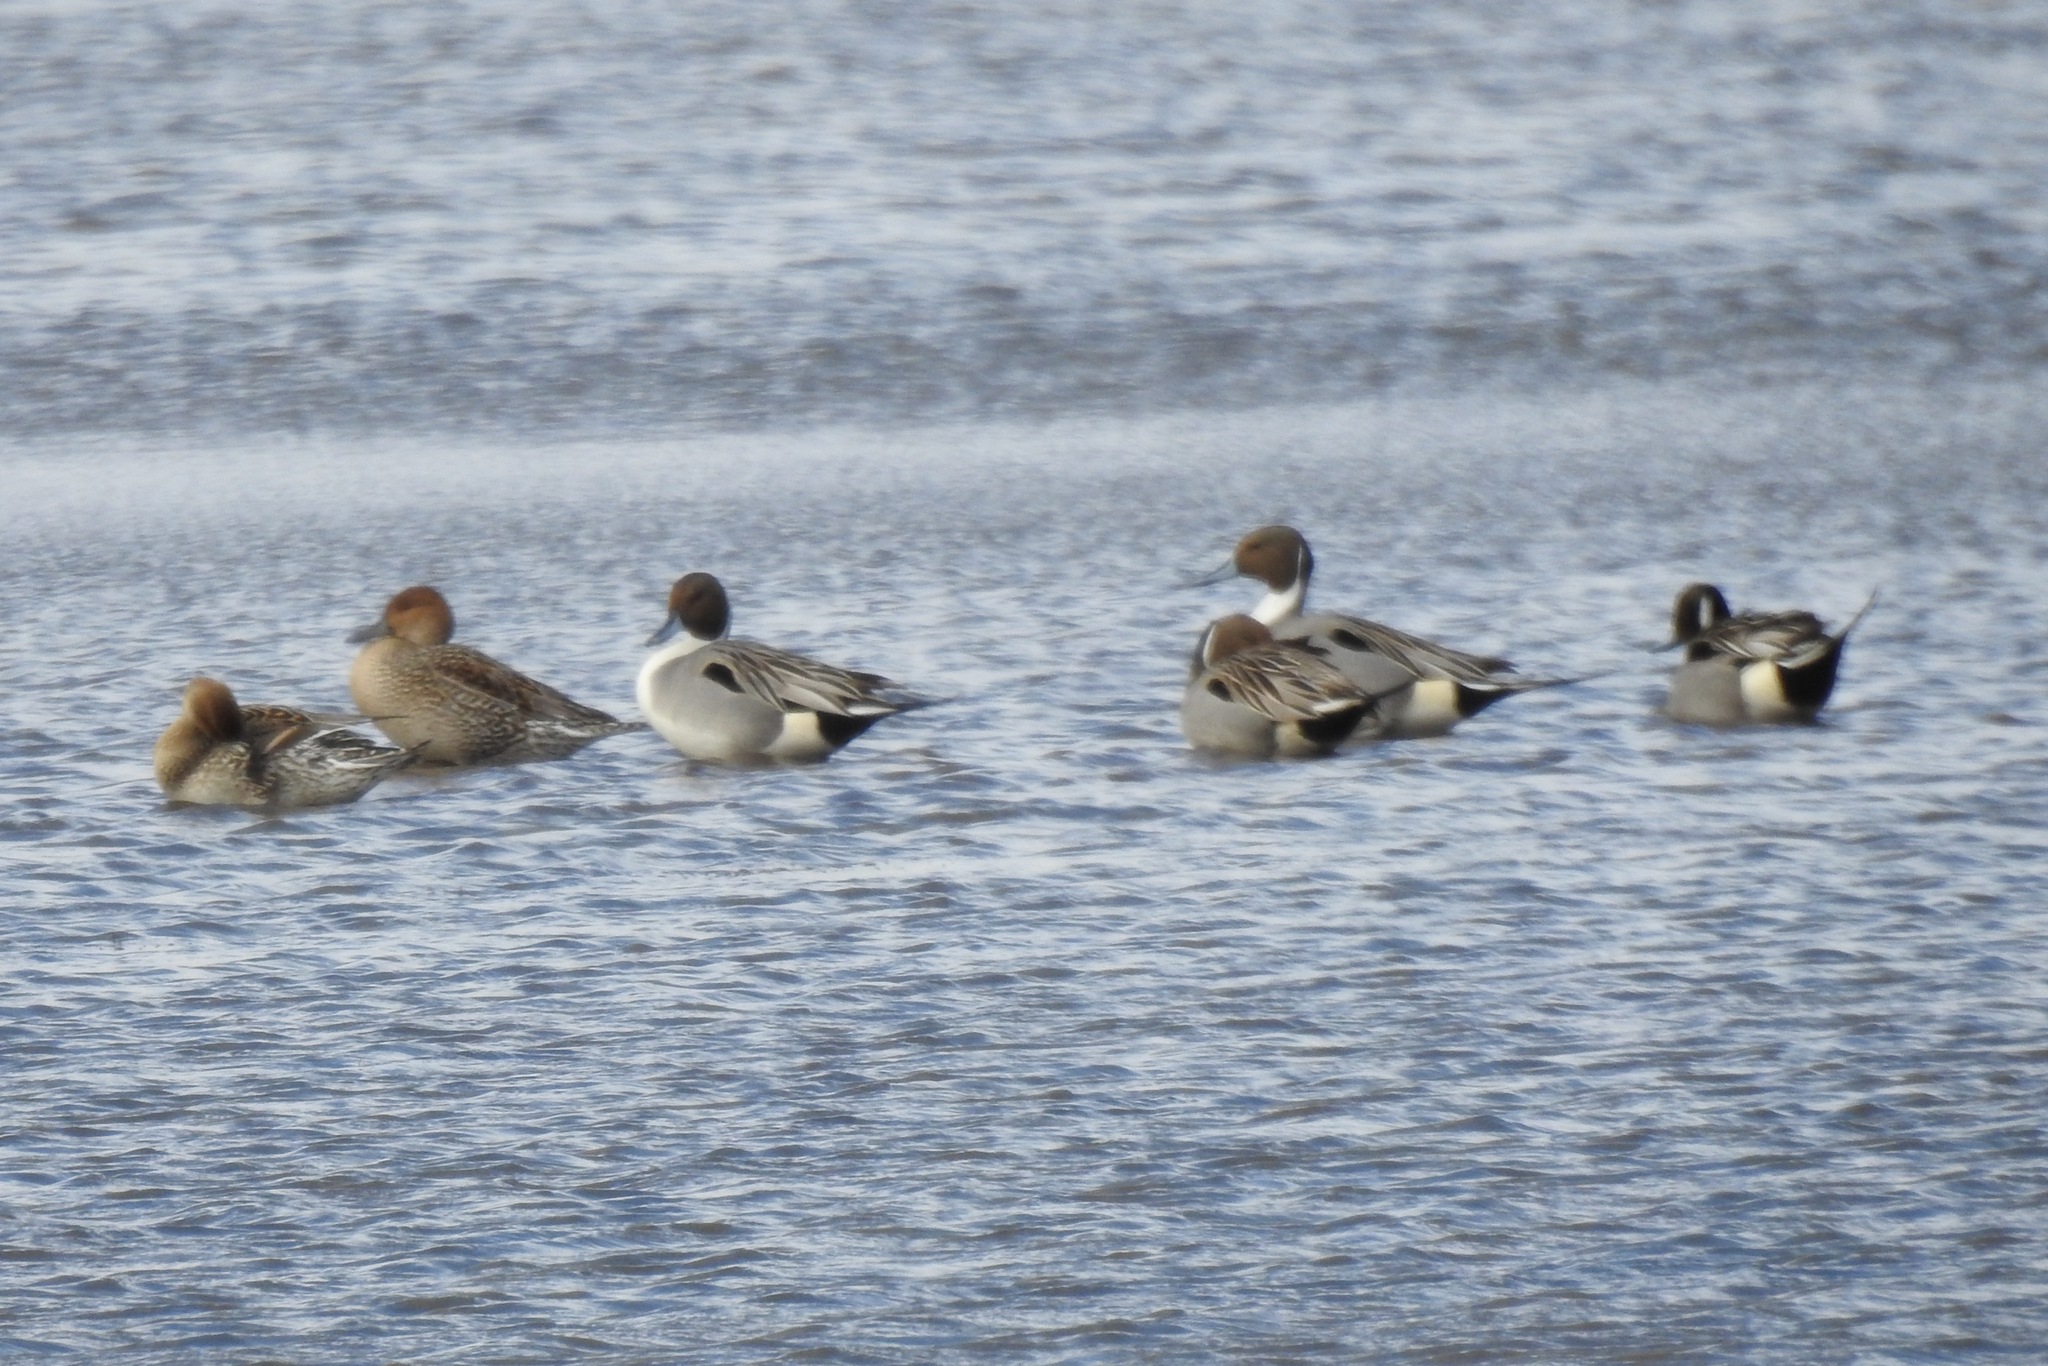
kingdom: Animalia
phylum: Chordata
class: Aves
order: Anseriformes
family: Anatidae
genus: Anas
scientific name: Anas acuta
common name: Northern pintail
